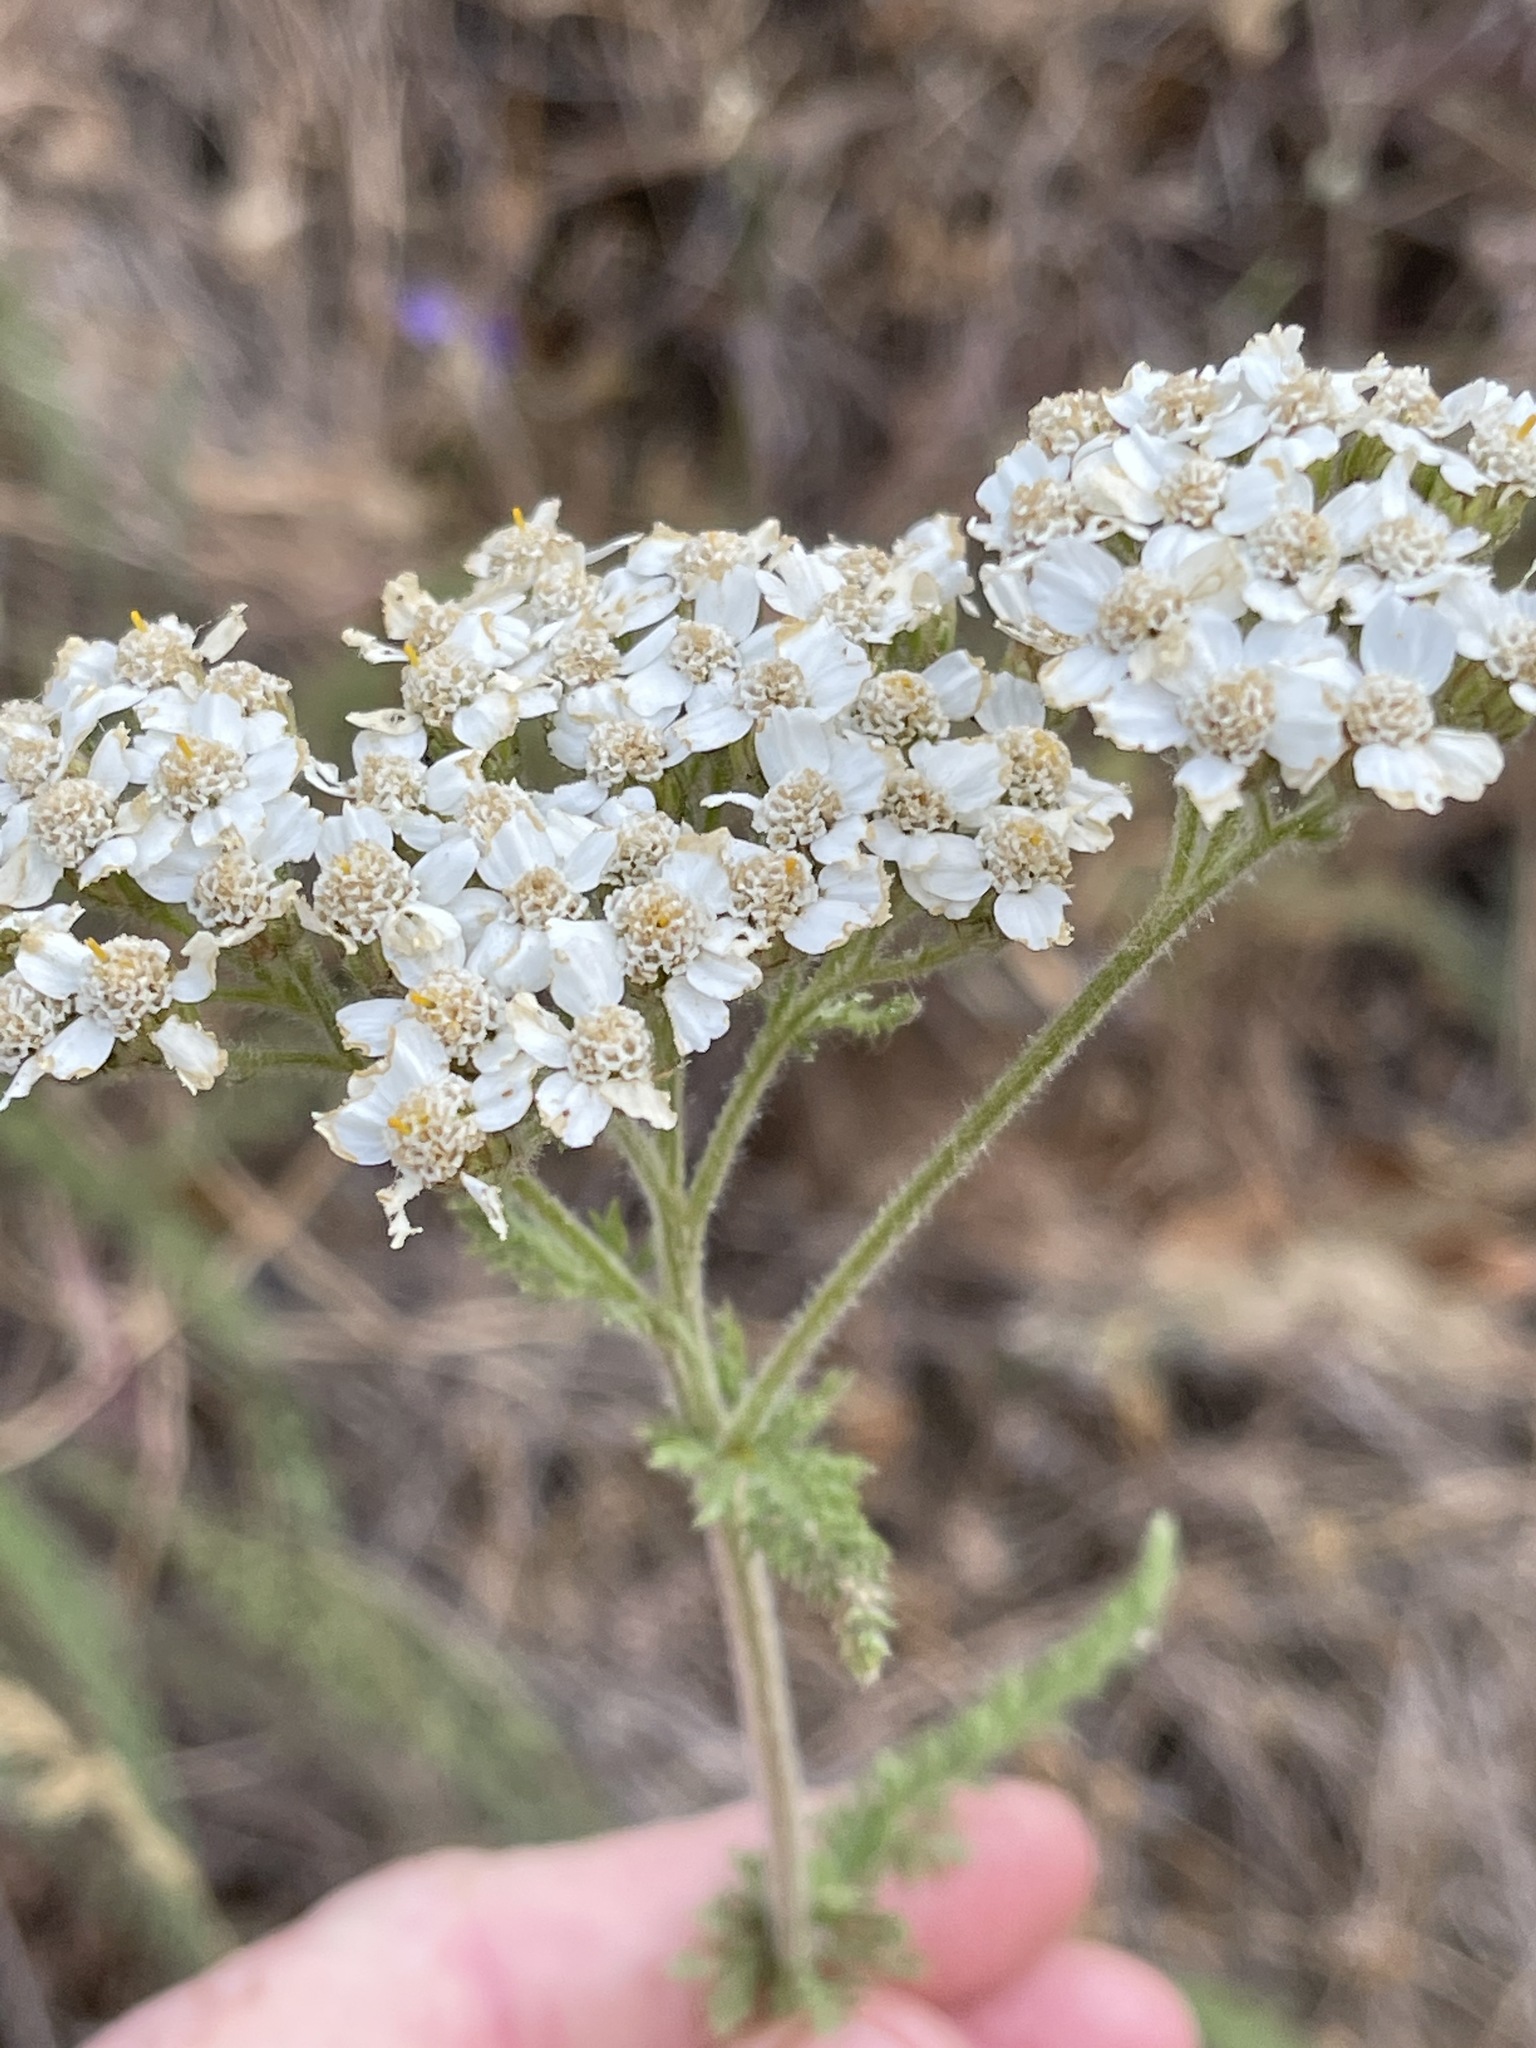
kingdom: Plantae
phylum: Tracheophyta
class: Magnoliopsida
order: Asterales
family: Asteraceae
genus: Achillea
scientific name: Achillea millefolium
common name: Yarrow
